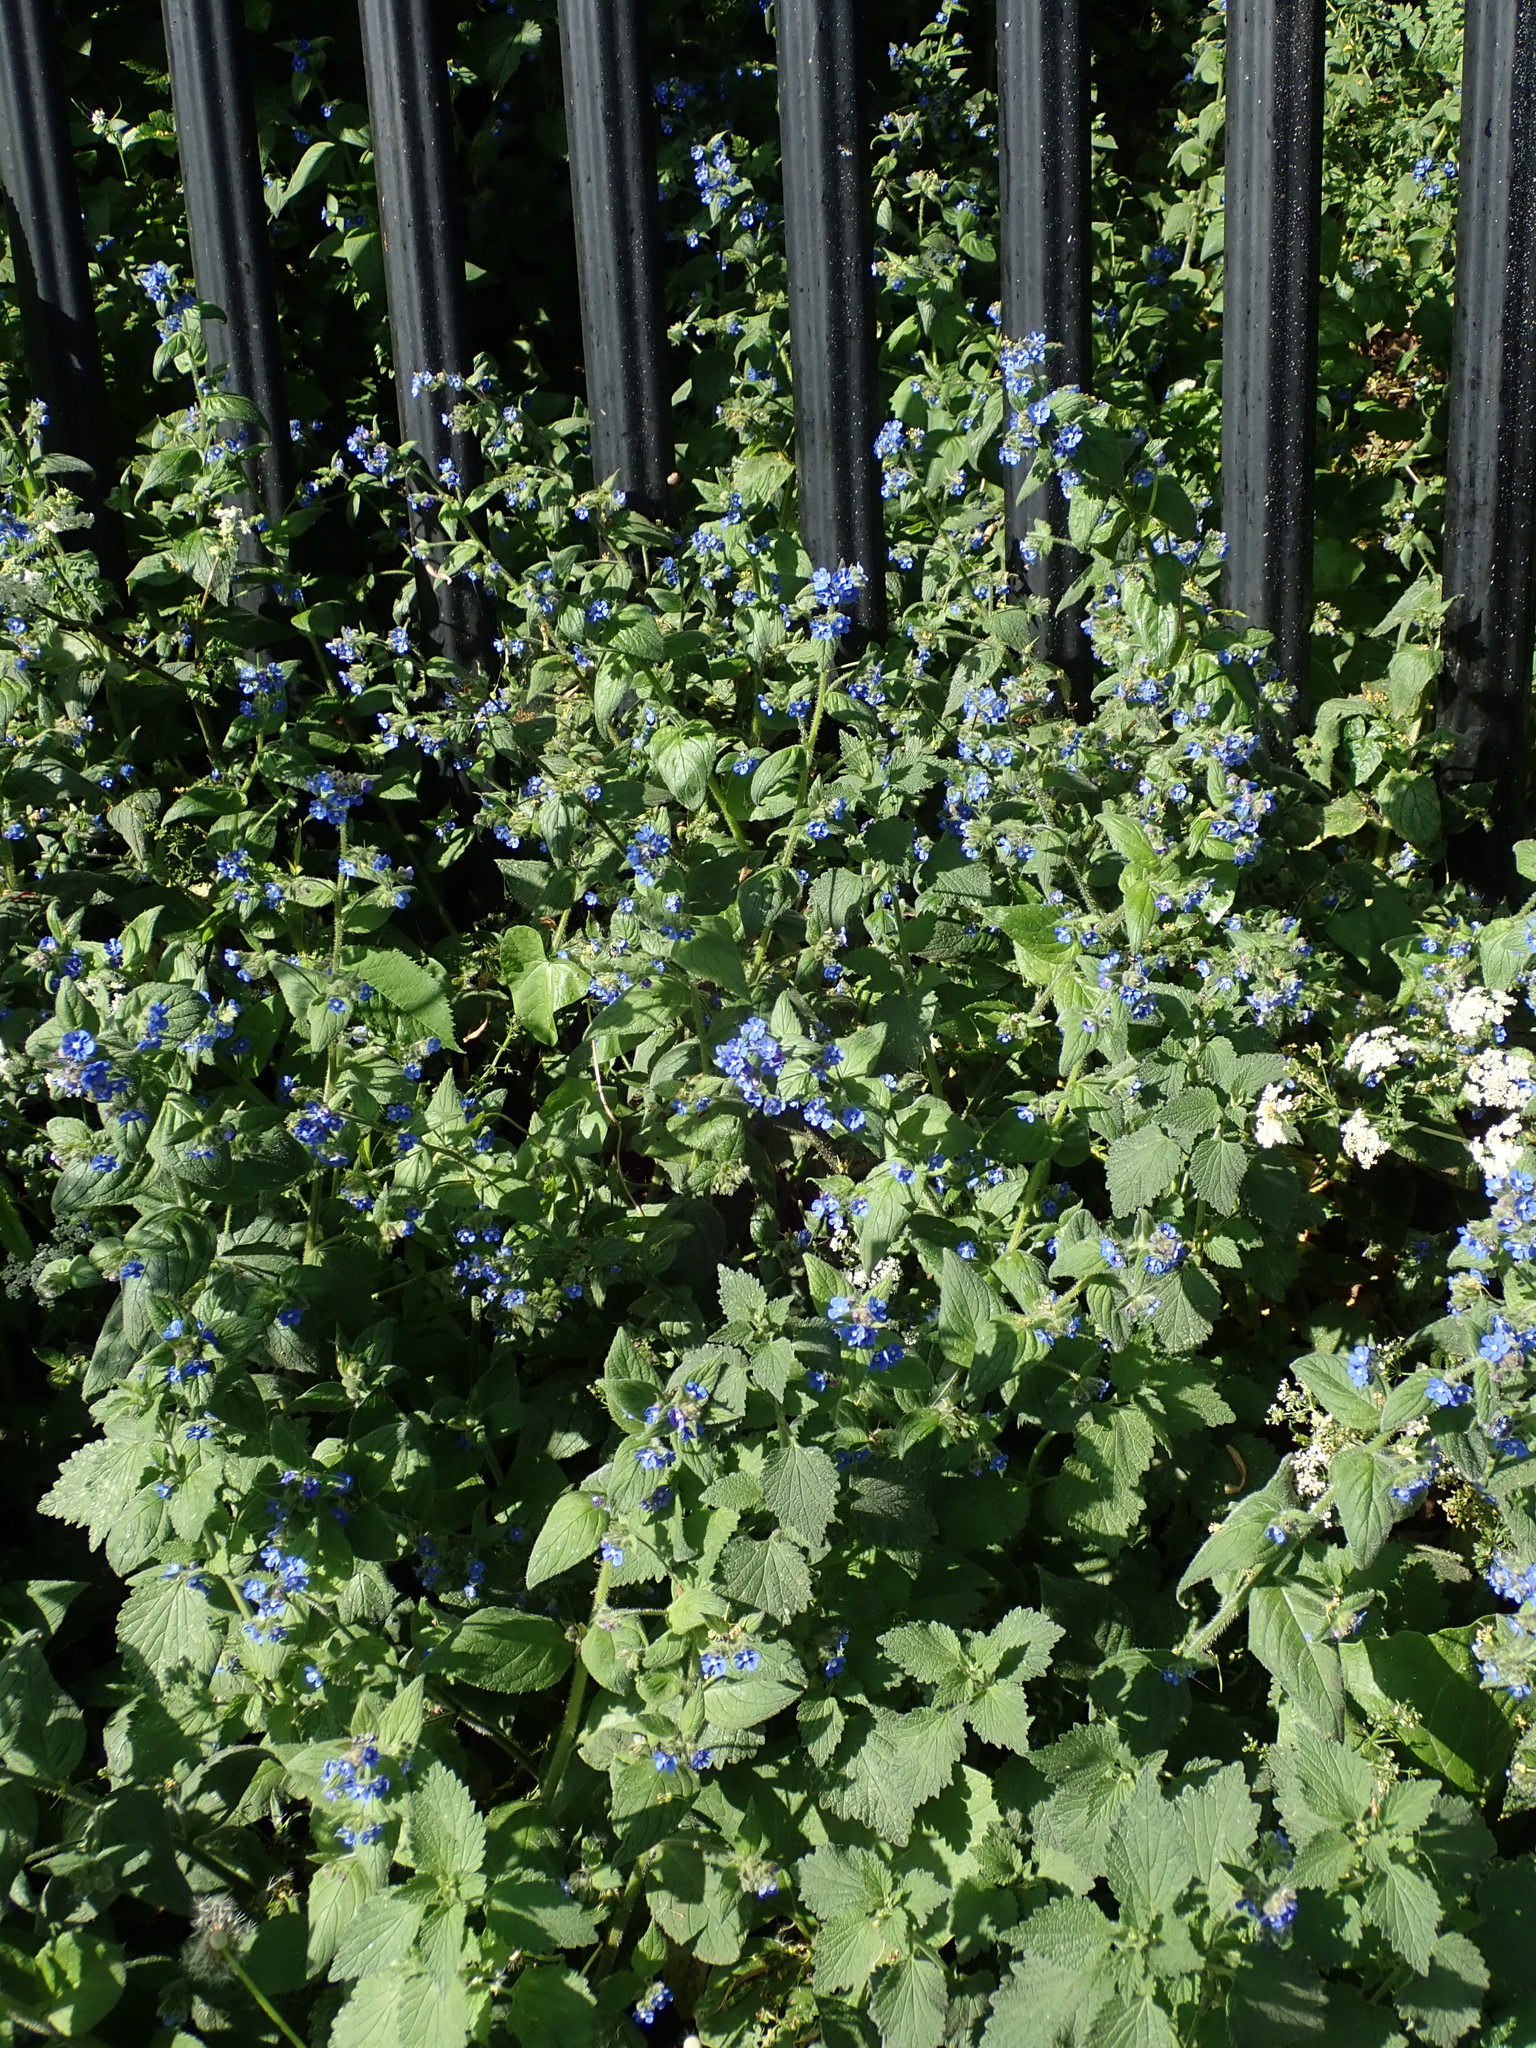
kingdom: Plantae
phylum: Tracheophyta
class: Magnoliopsida
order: Boraginales
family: Boraginaceae
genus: Pentaglottis
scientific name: Pentaglottis sempervirens
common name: Green alkanet
